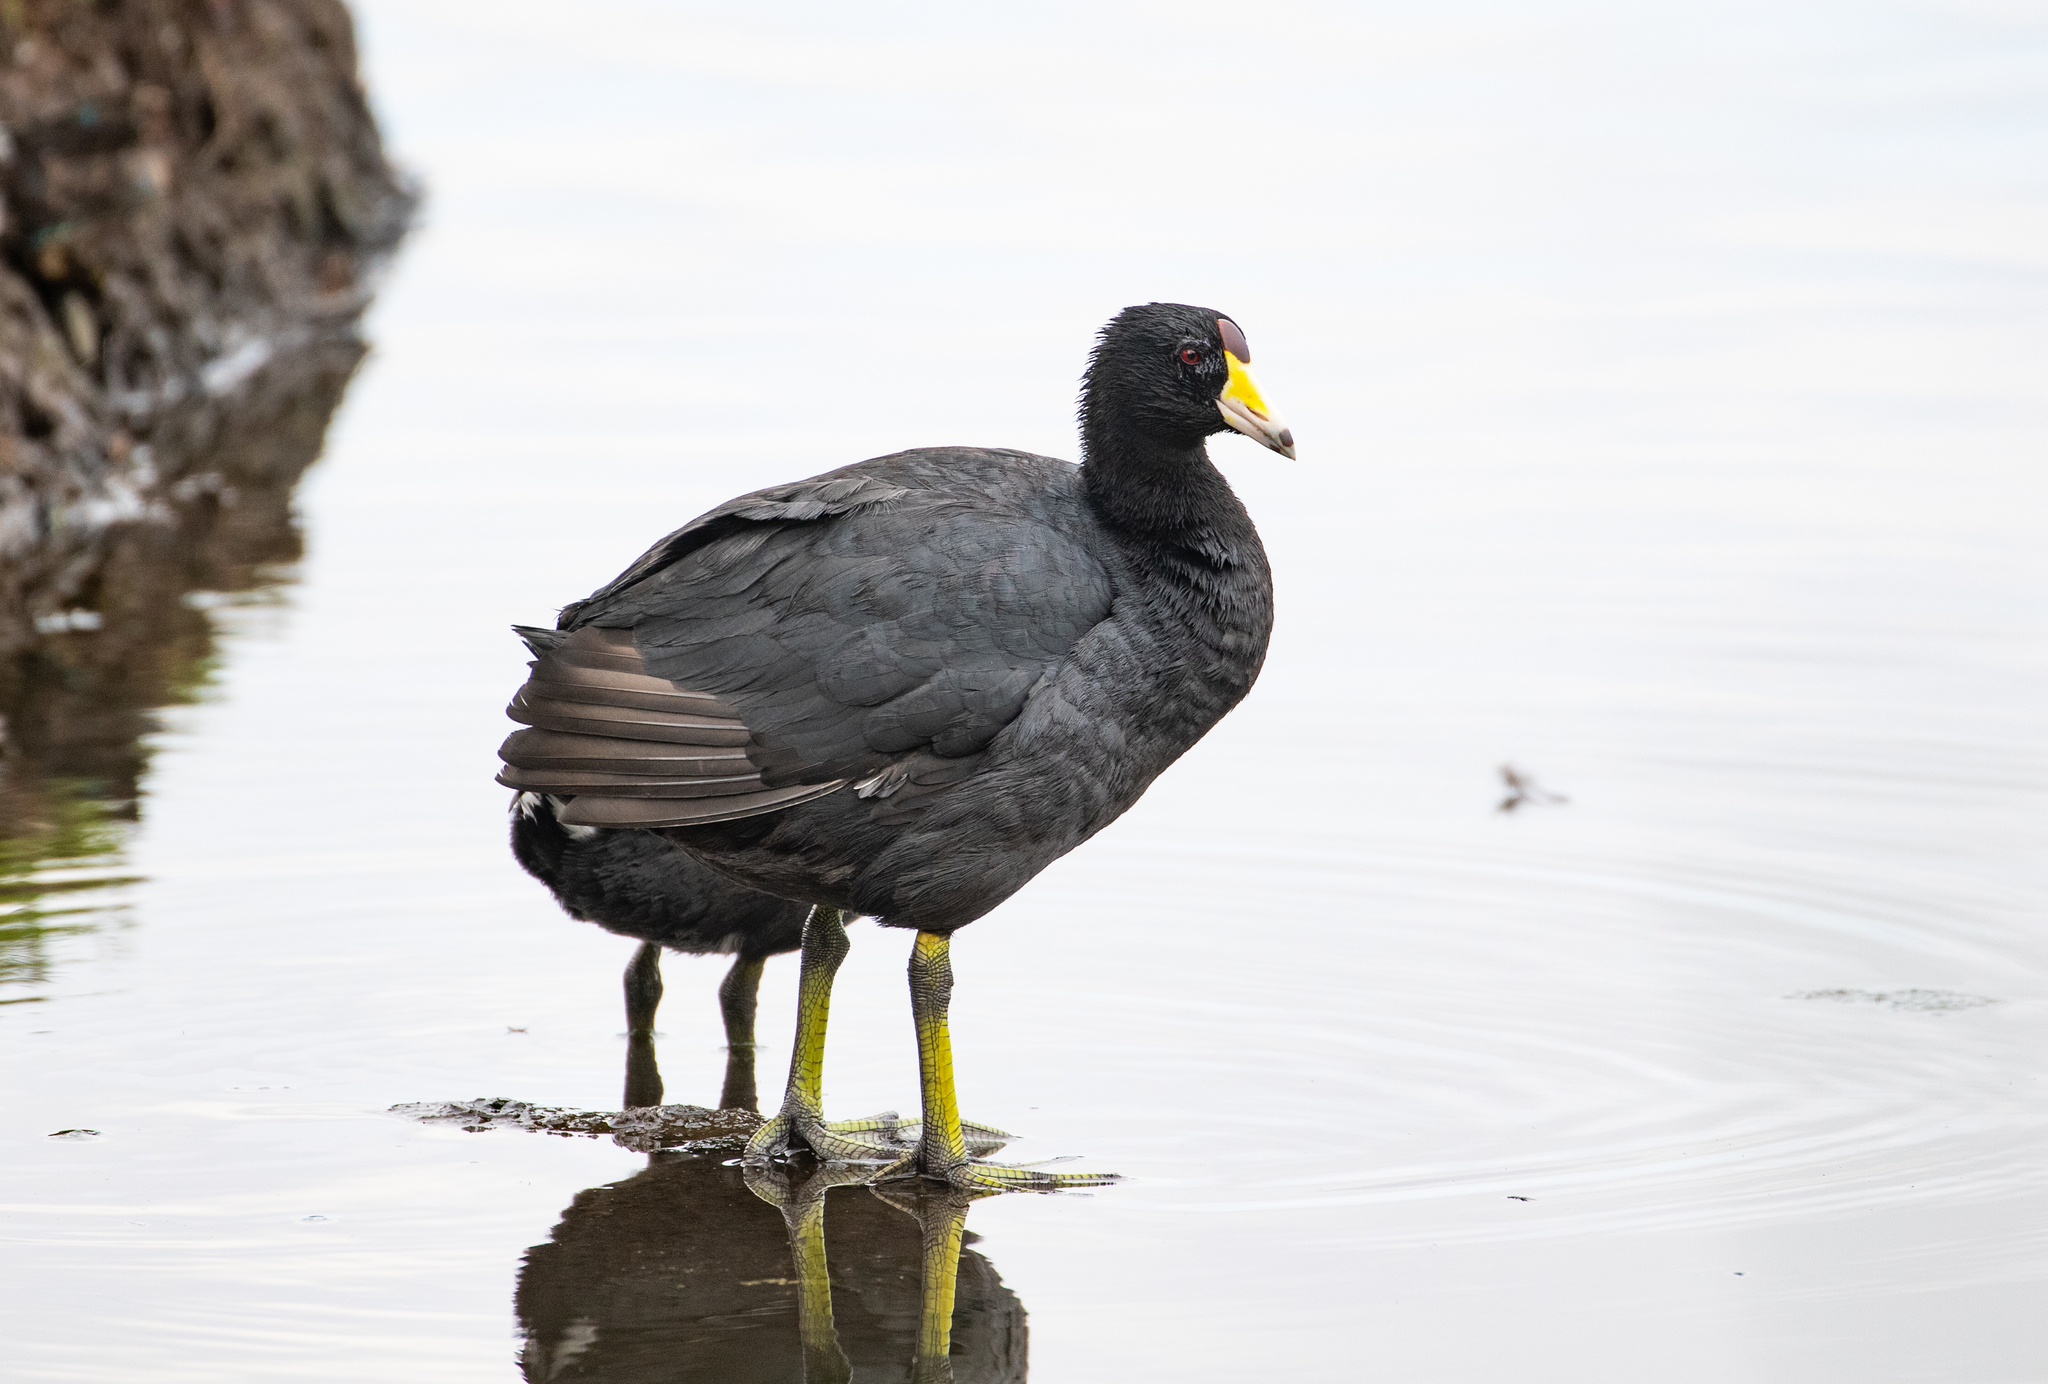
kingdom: Animalia
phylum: Chordata
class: Aves
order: Gruiformes
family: Rallidae
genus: Fulica
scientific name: Fulica americana
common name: American coot
